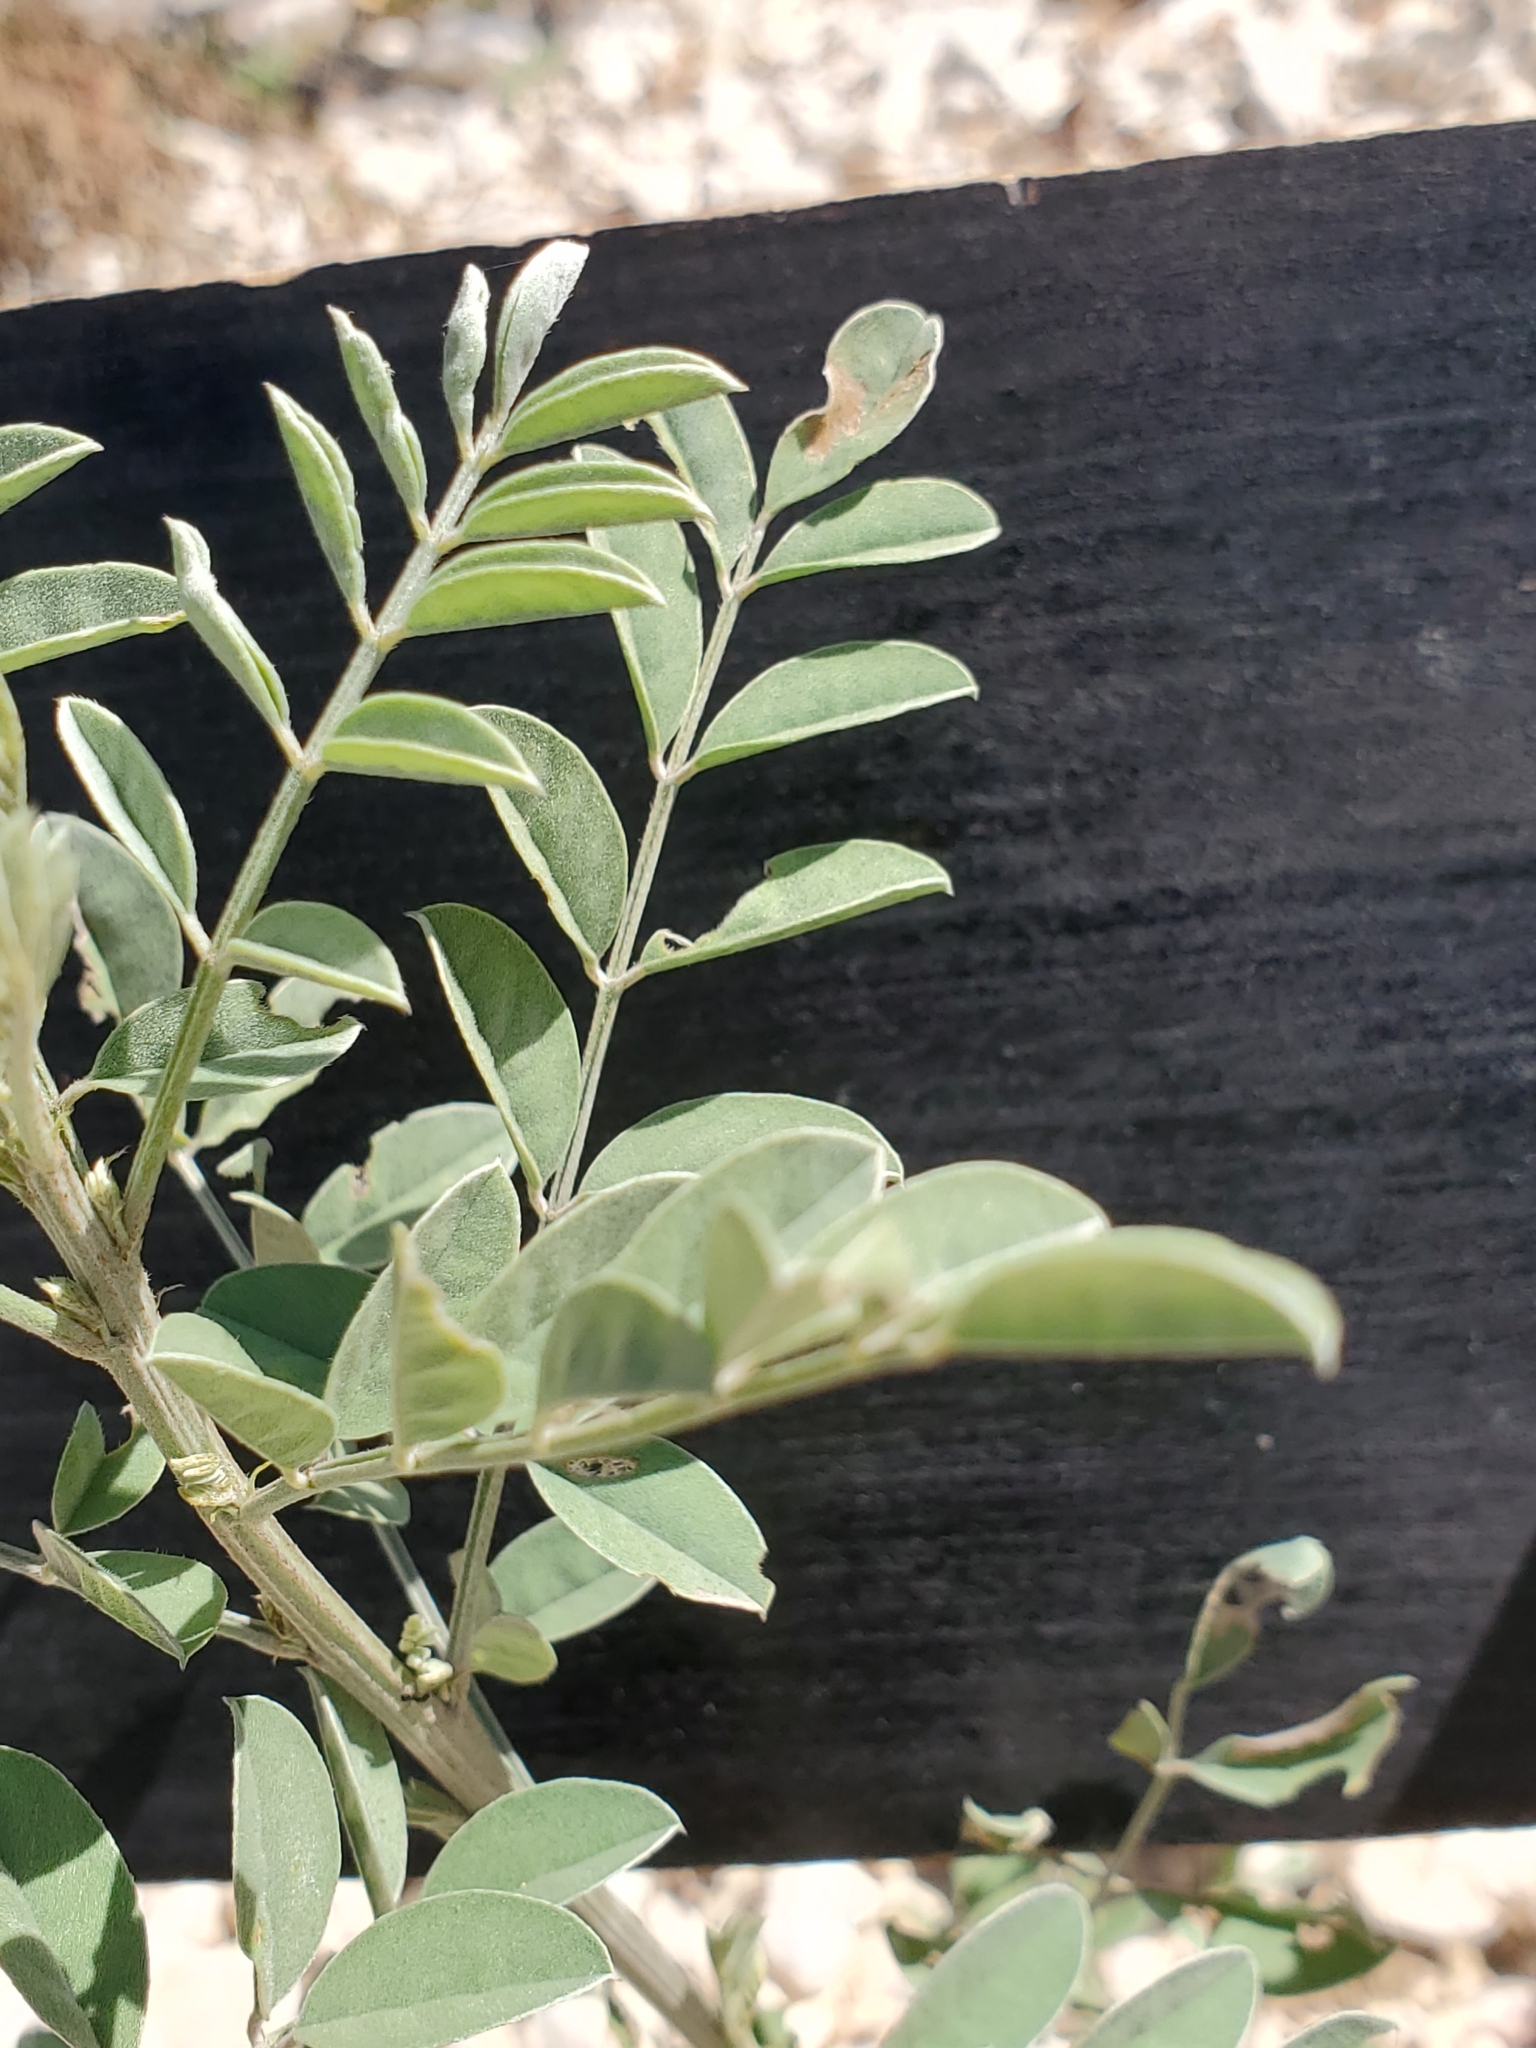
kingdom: Plantae
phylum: Tracheophyta
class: Magnoliopsida
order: Fabales
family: Fabaceae
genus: Indigofera
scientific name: Indigofera lindheimeriana
